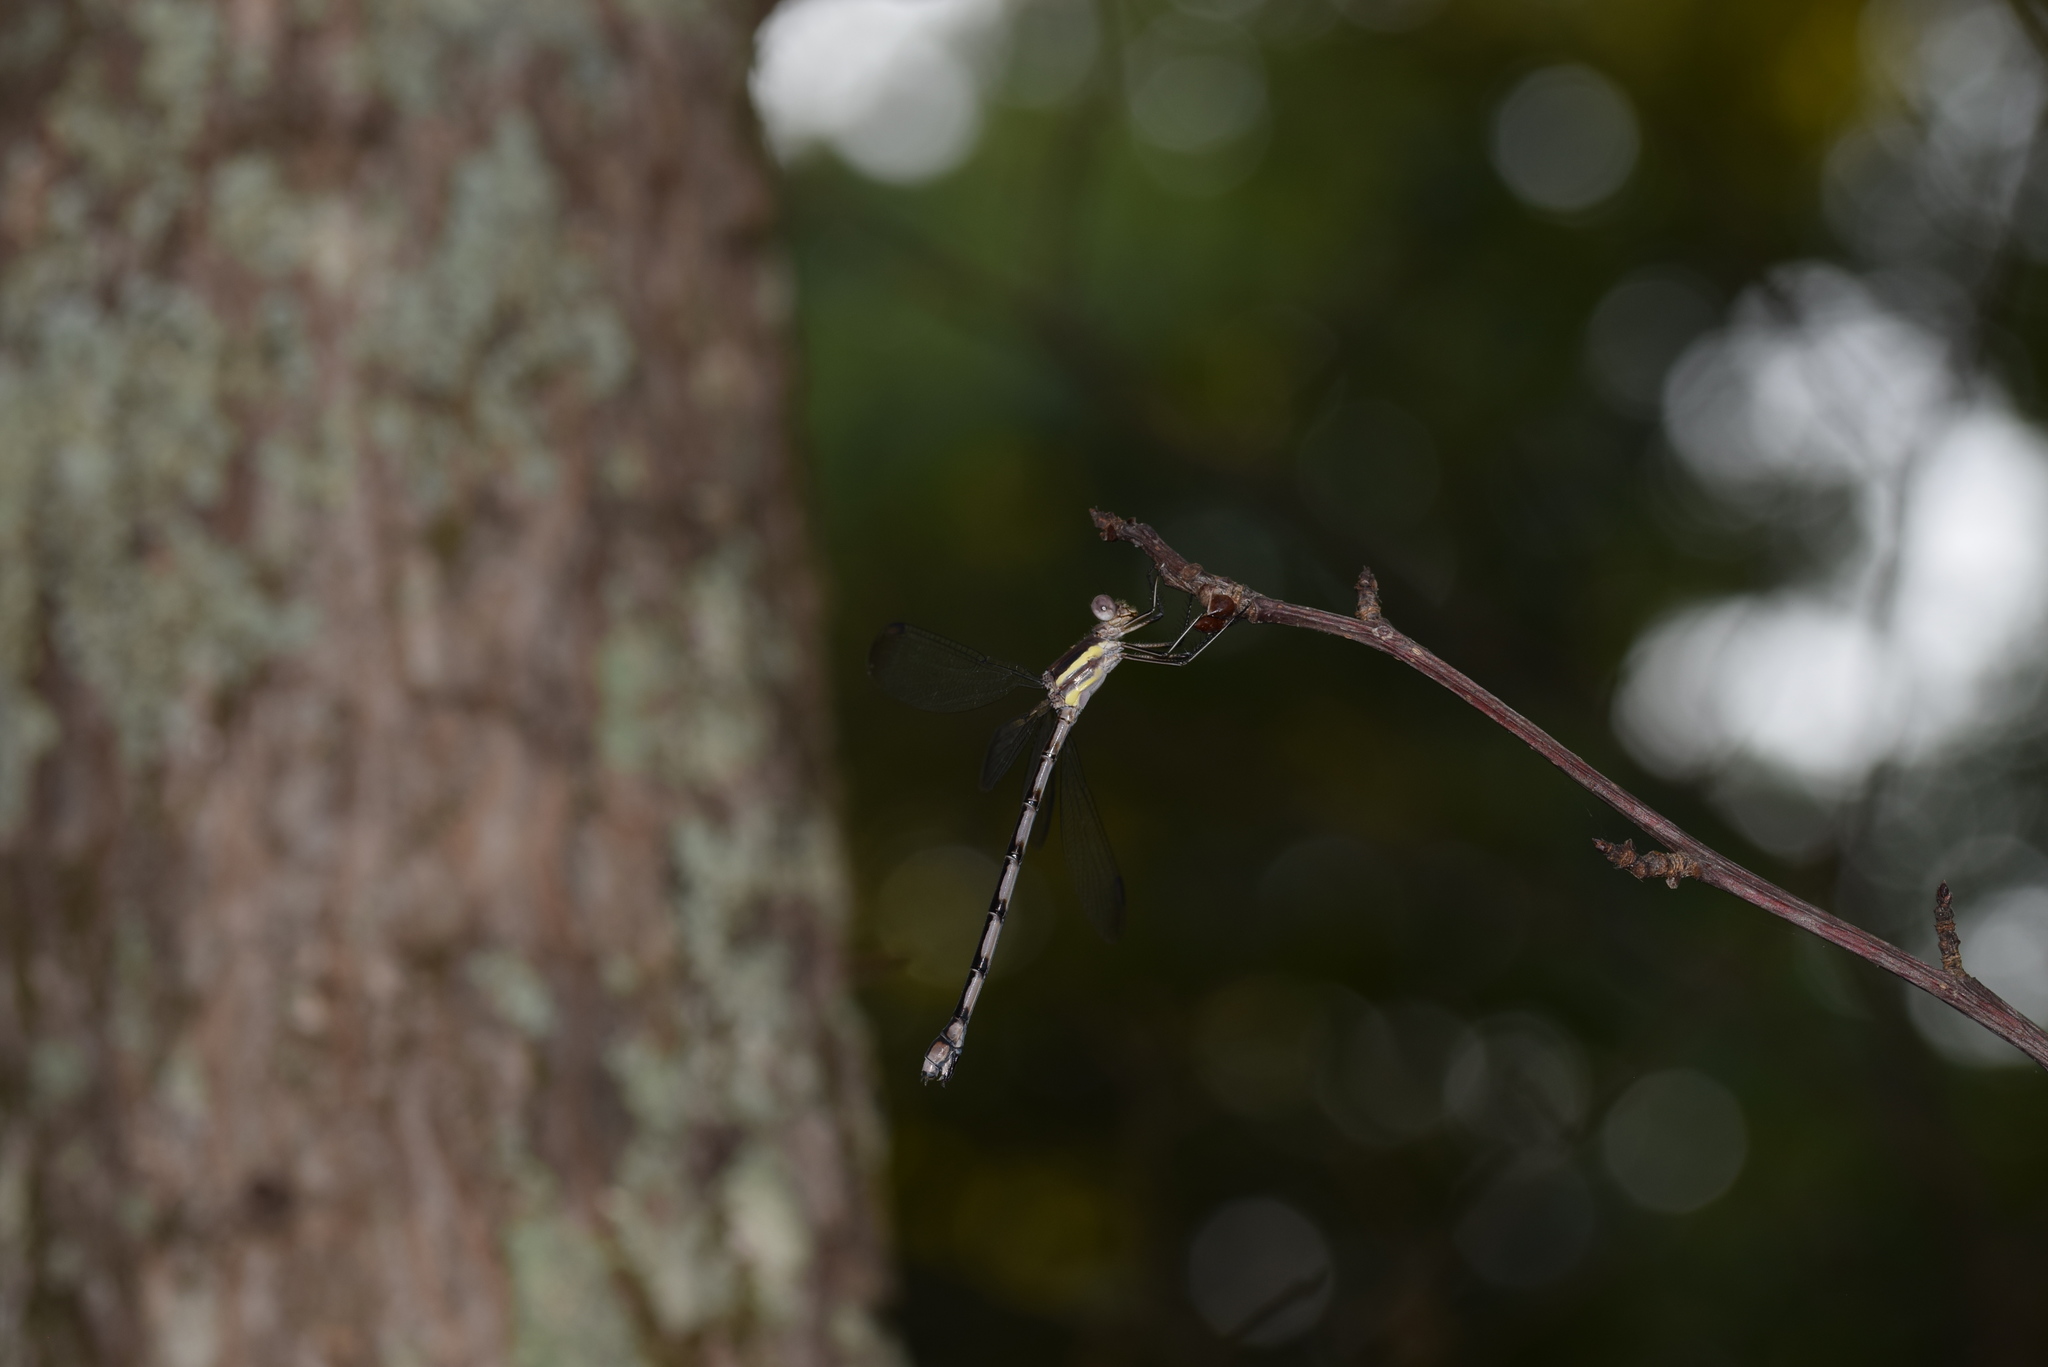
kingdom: Animalia
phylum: Arthropoda
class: Insecta
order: Odonata
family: Lestidae
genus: Archilestes
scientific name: Archilestes grandis
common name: Great spreadwing
